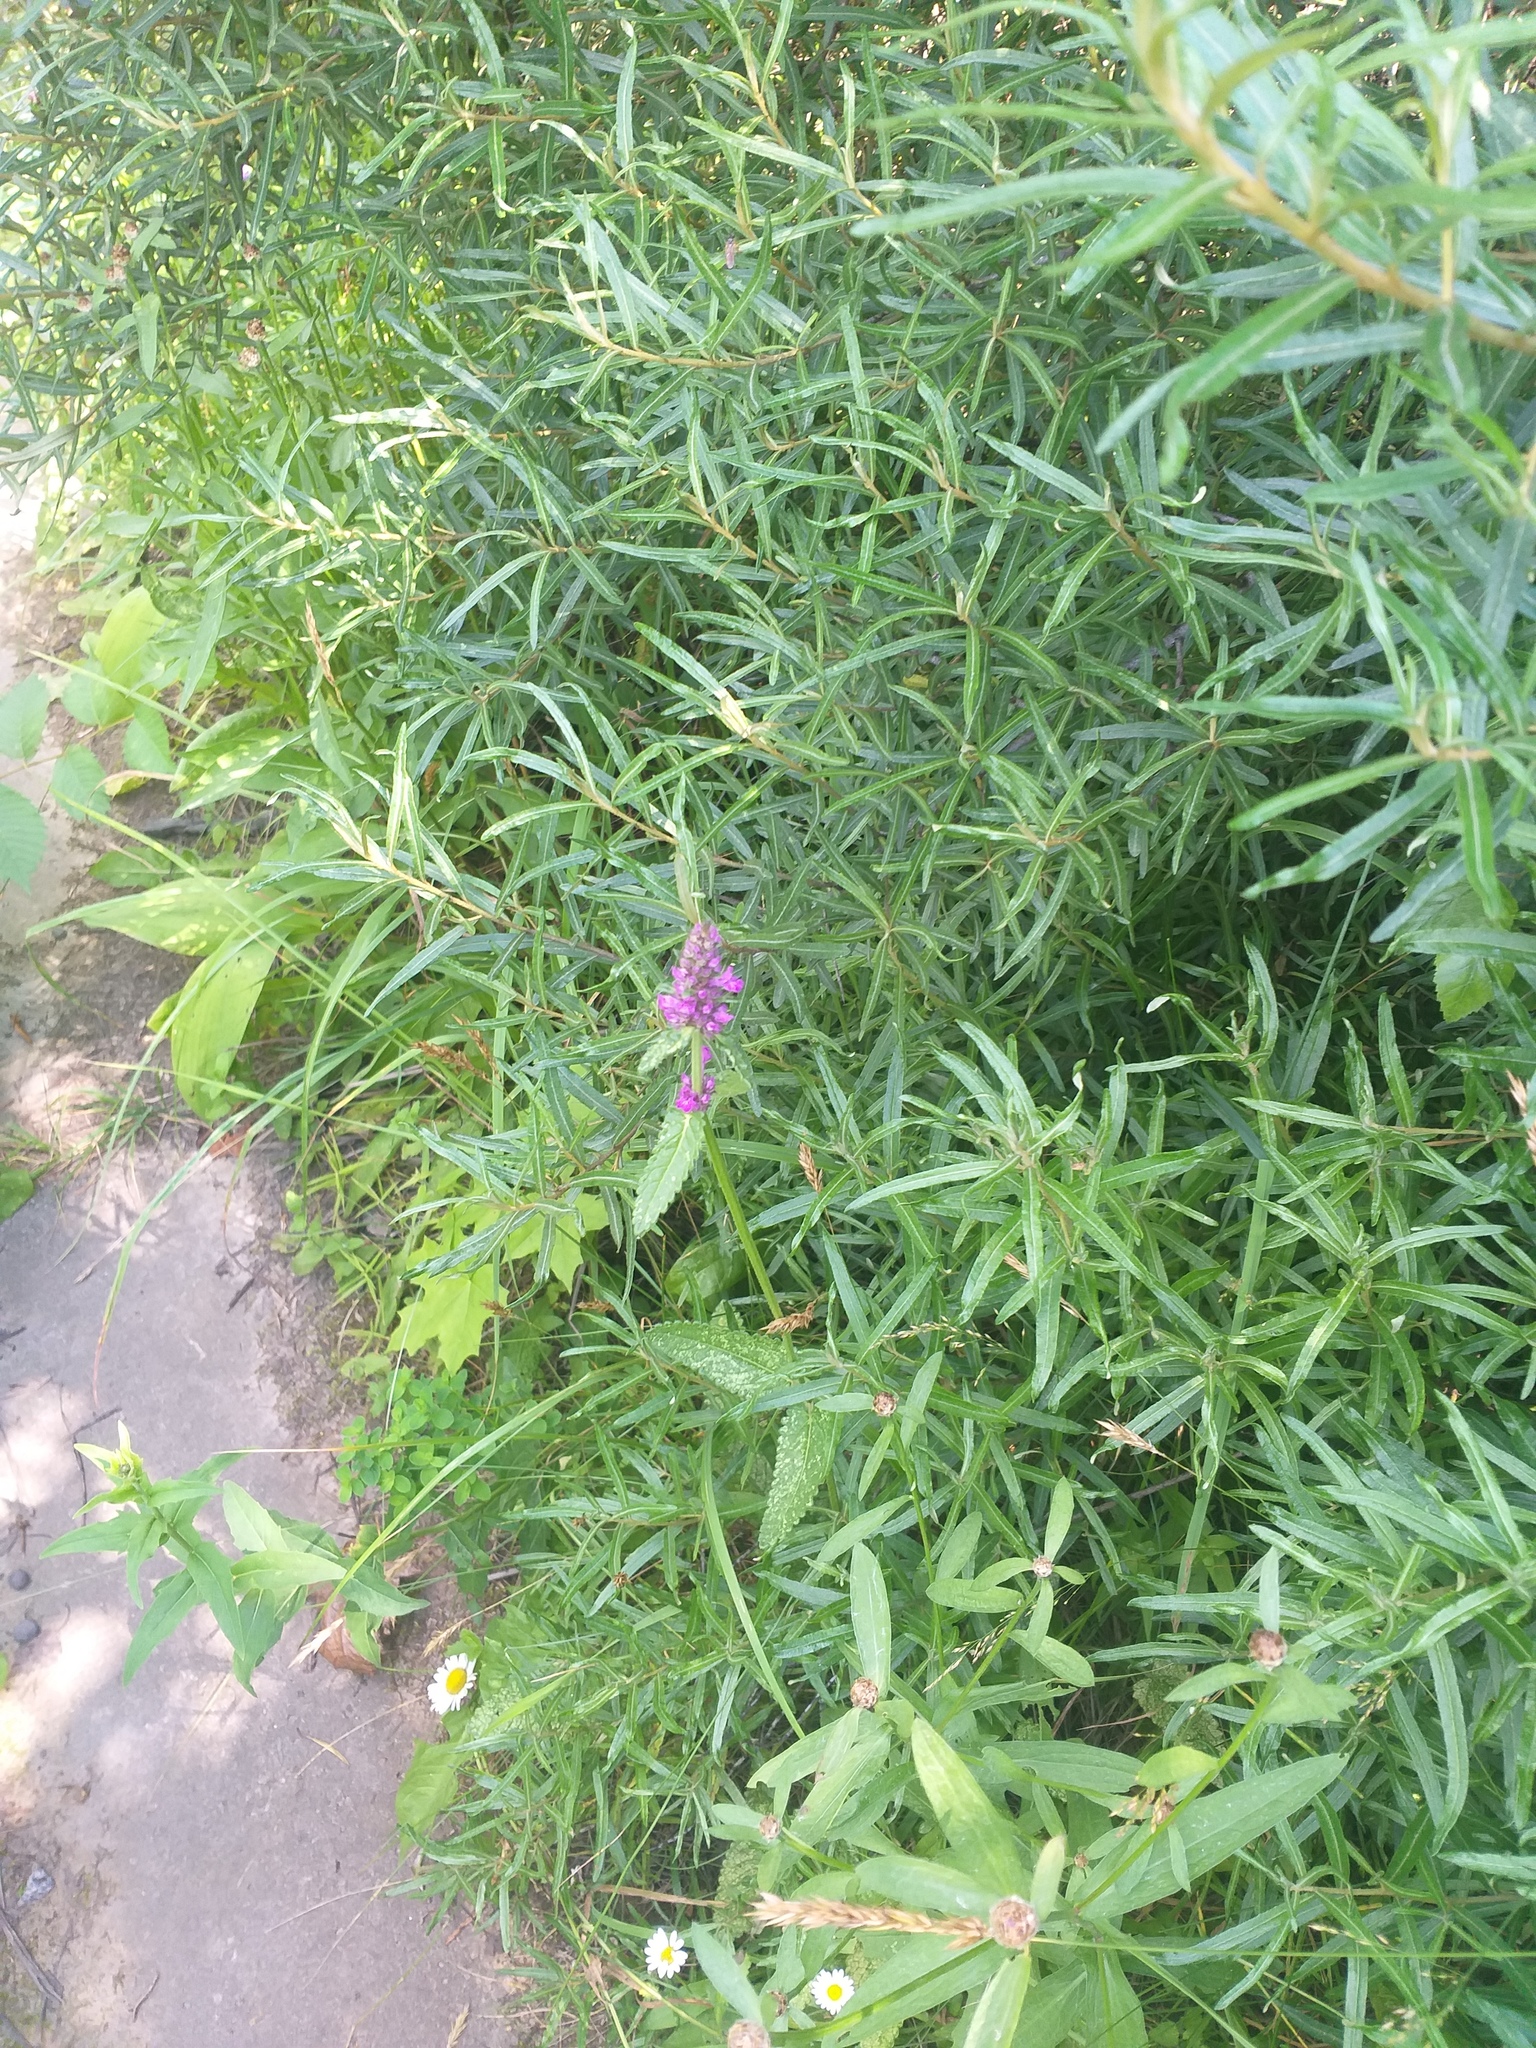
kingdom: Plantae
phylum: Tracheophyta
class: Magnoliopsida
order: Lamiales
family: Lamiaceae
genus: Betonica
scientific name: Betonica officinalis
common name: Bishop's-wort
